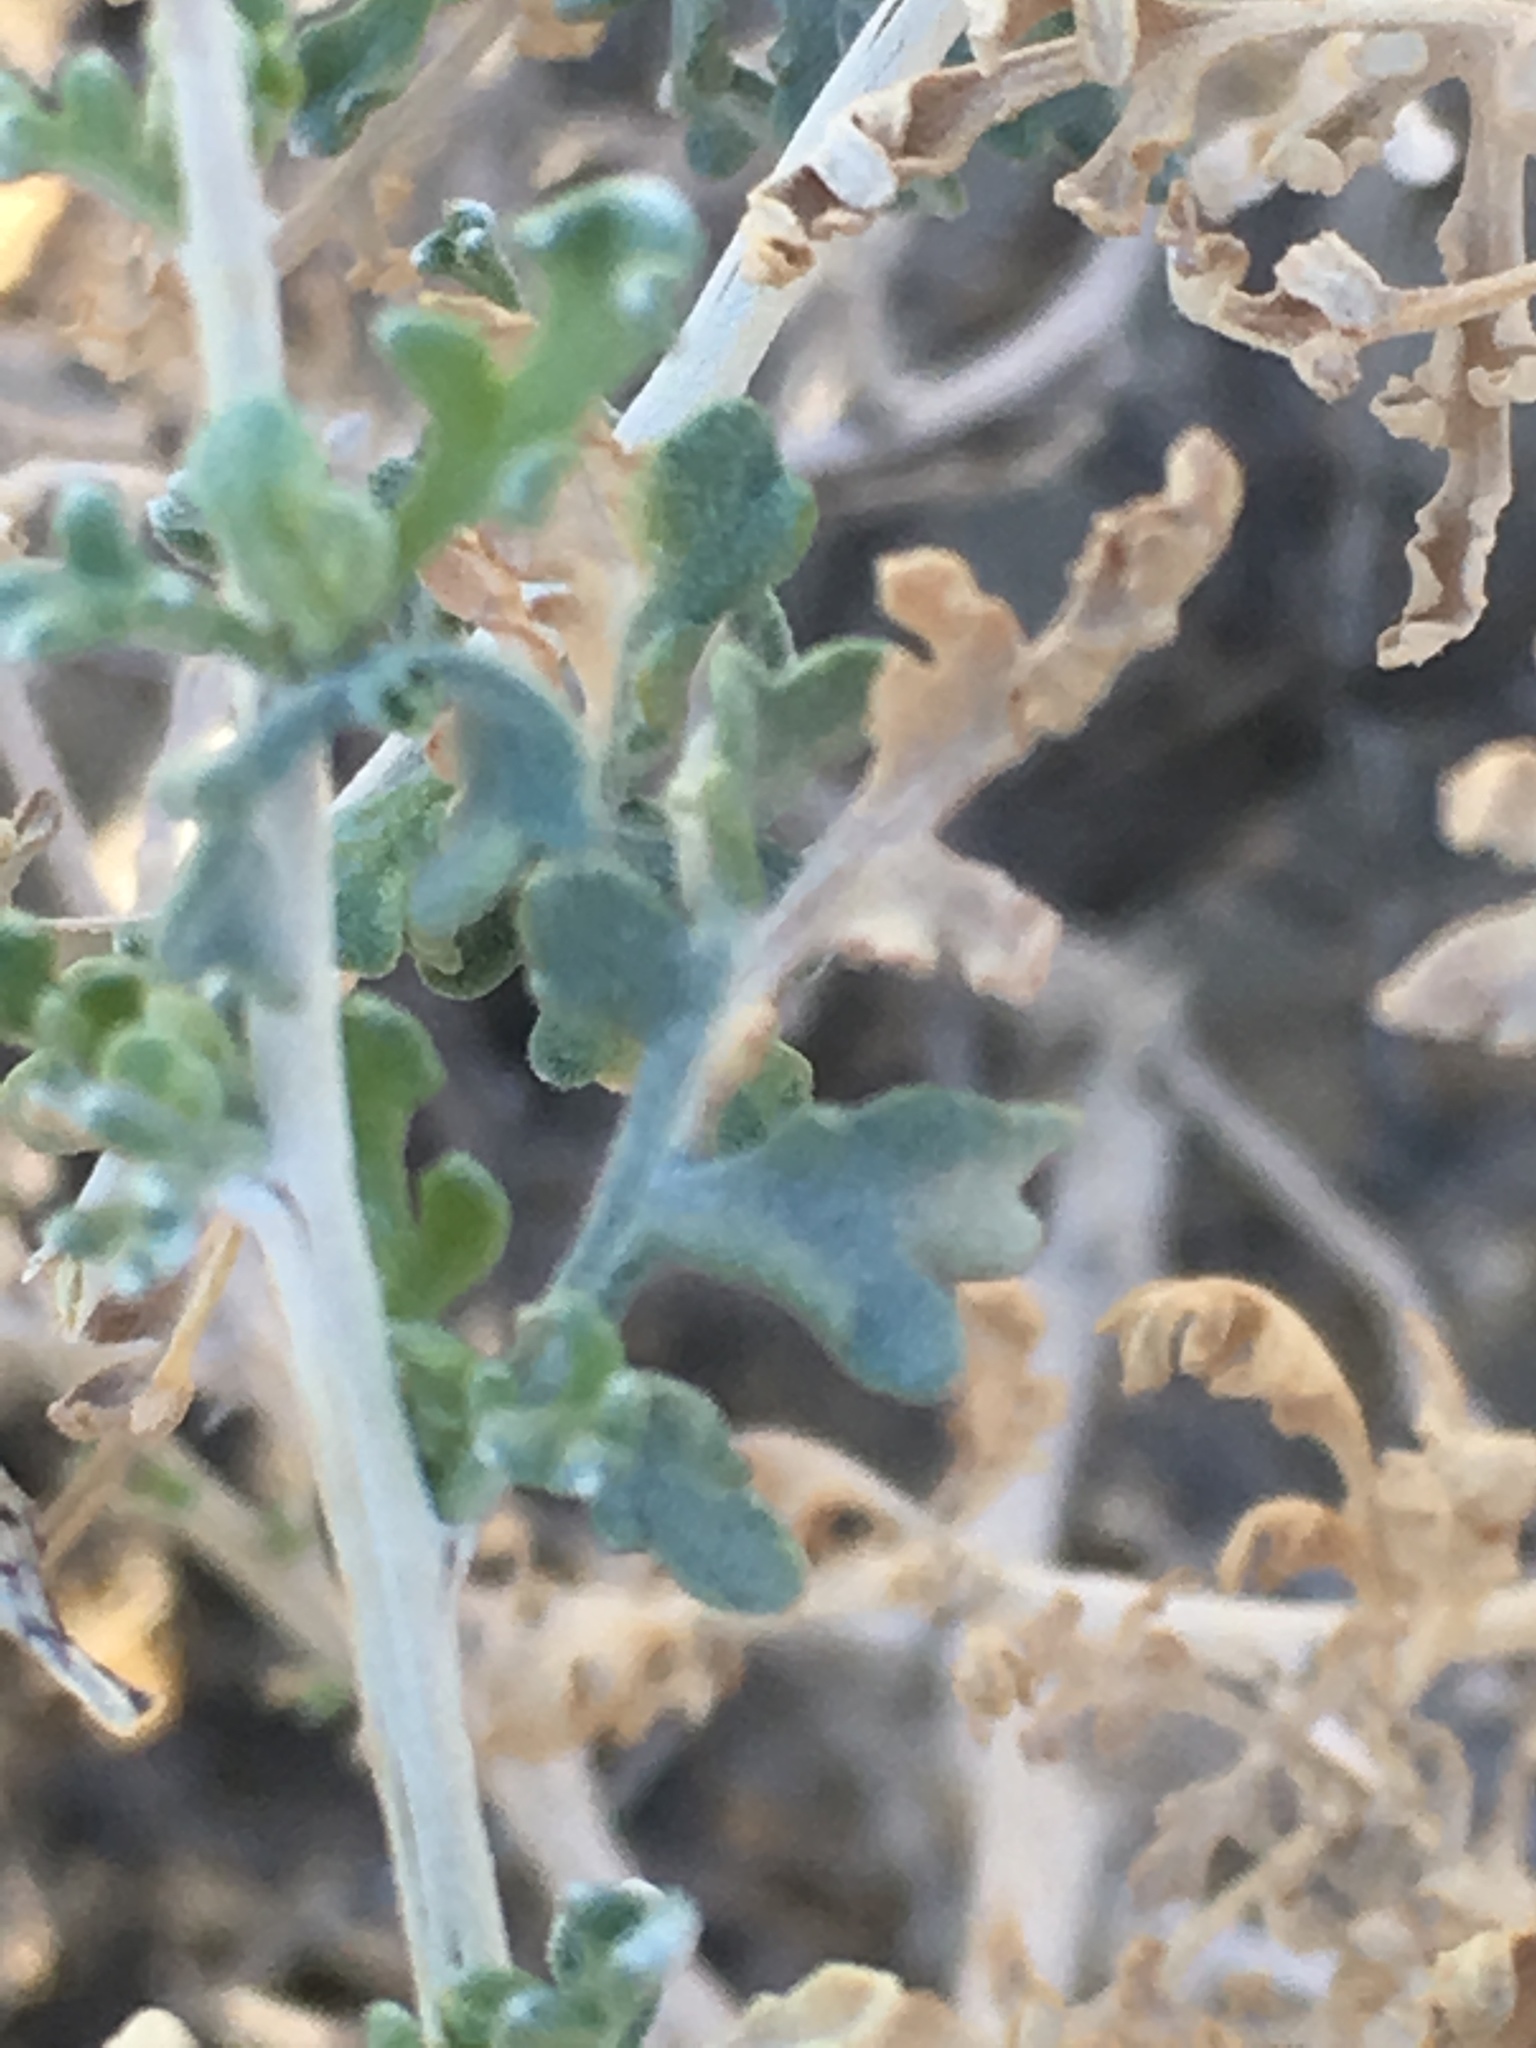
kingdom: Plantae
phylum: Tracheophyta
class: Magnoliopsida
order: Asterales
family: Asteraceae
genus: Ambrosia
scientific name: Ambrosia dumosa
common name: Bur-sage
